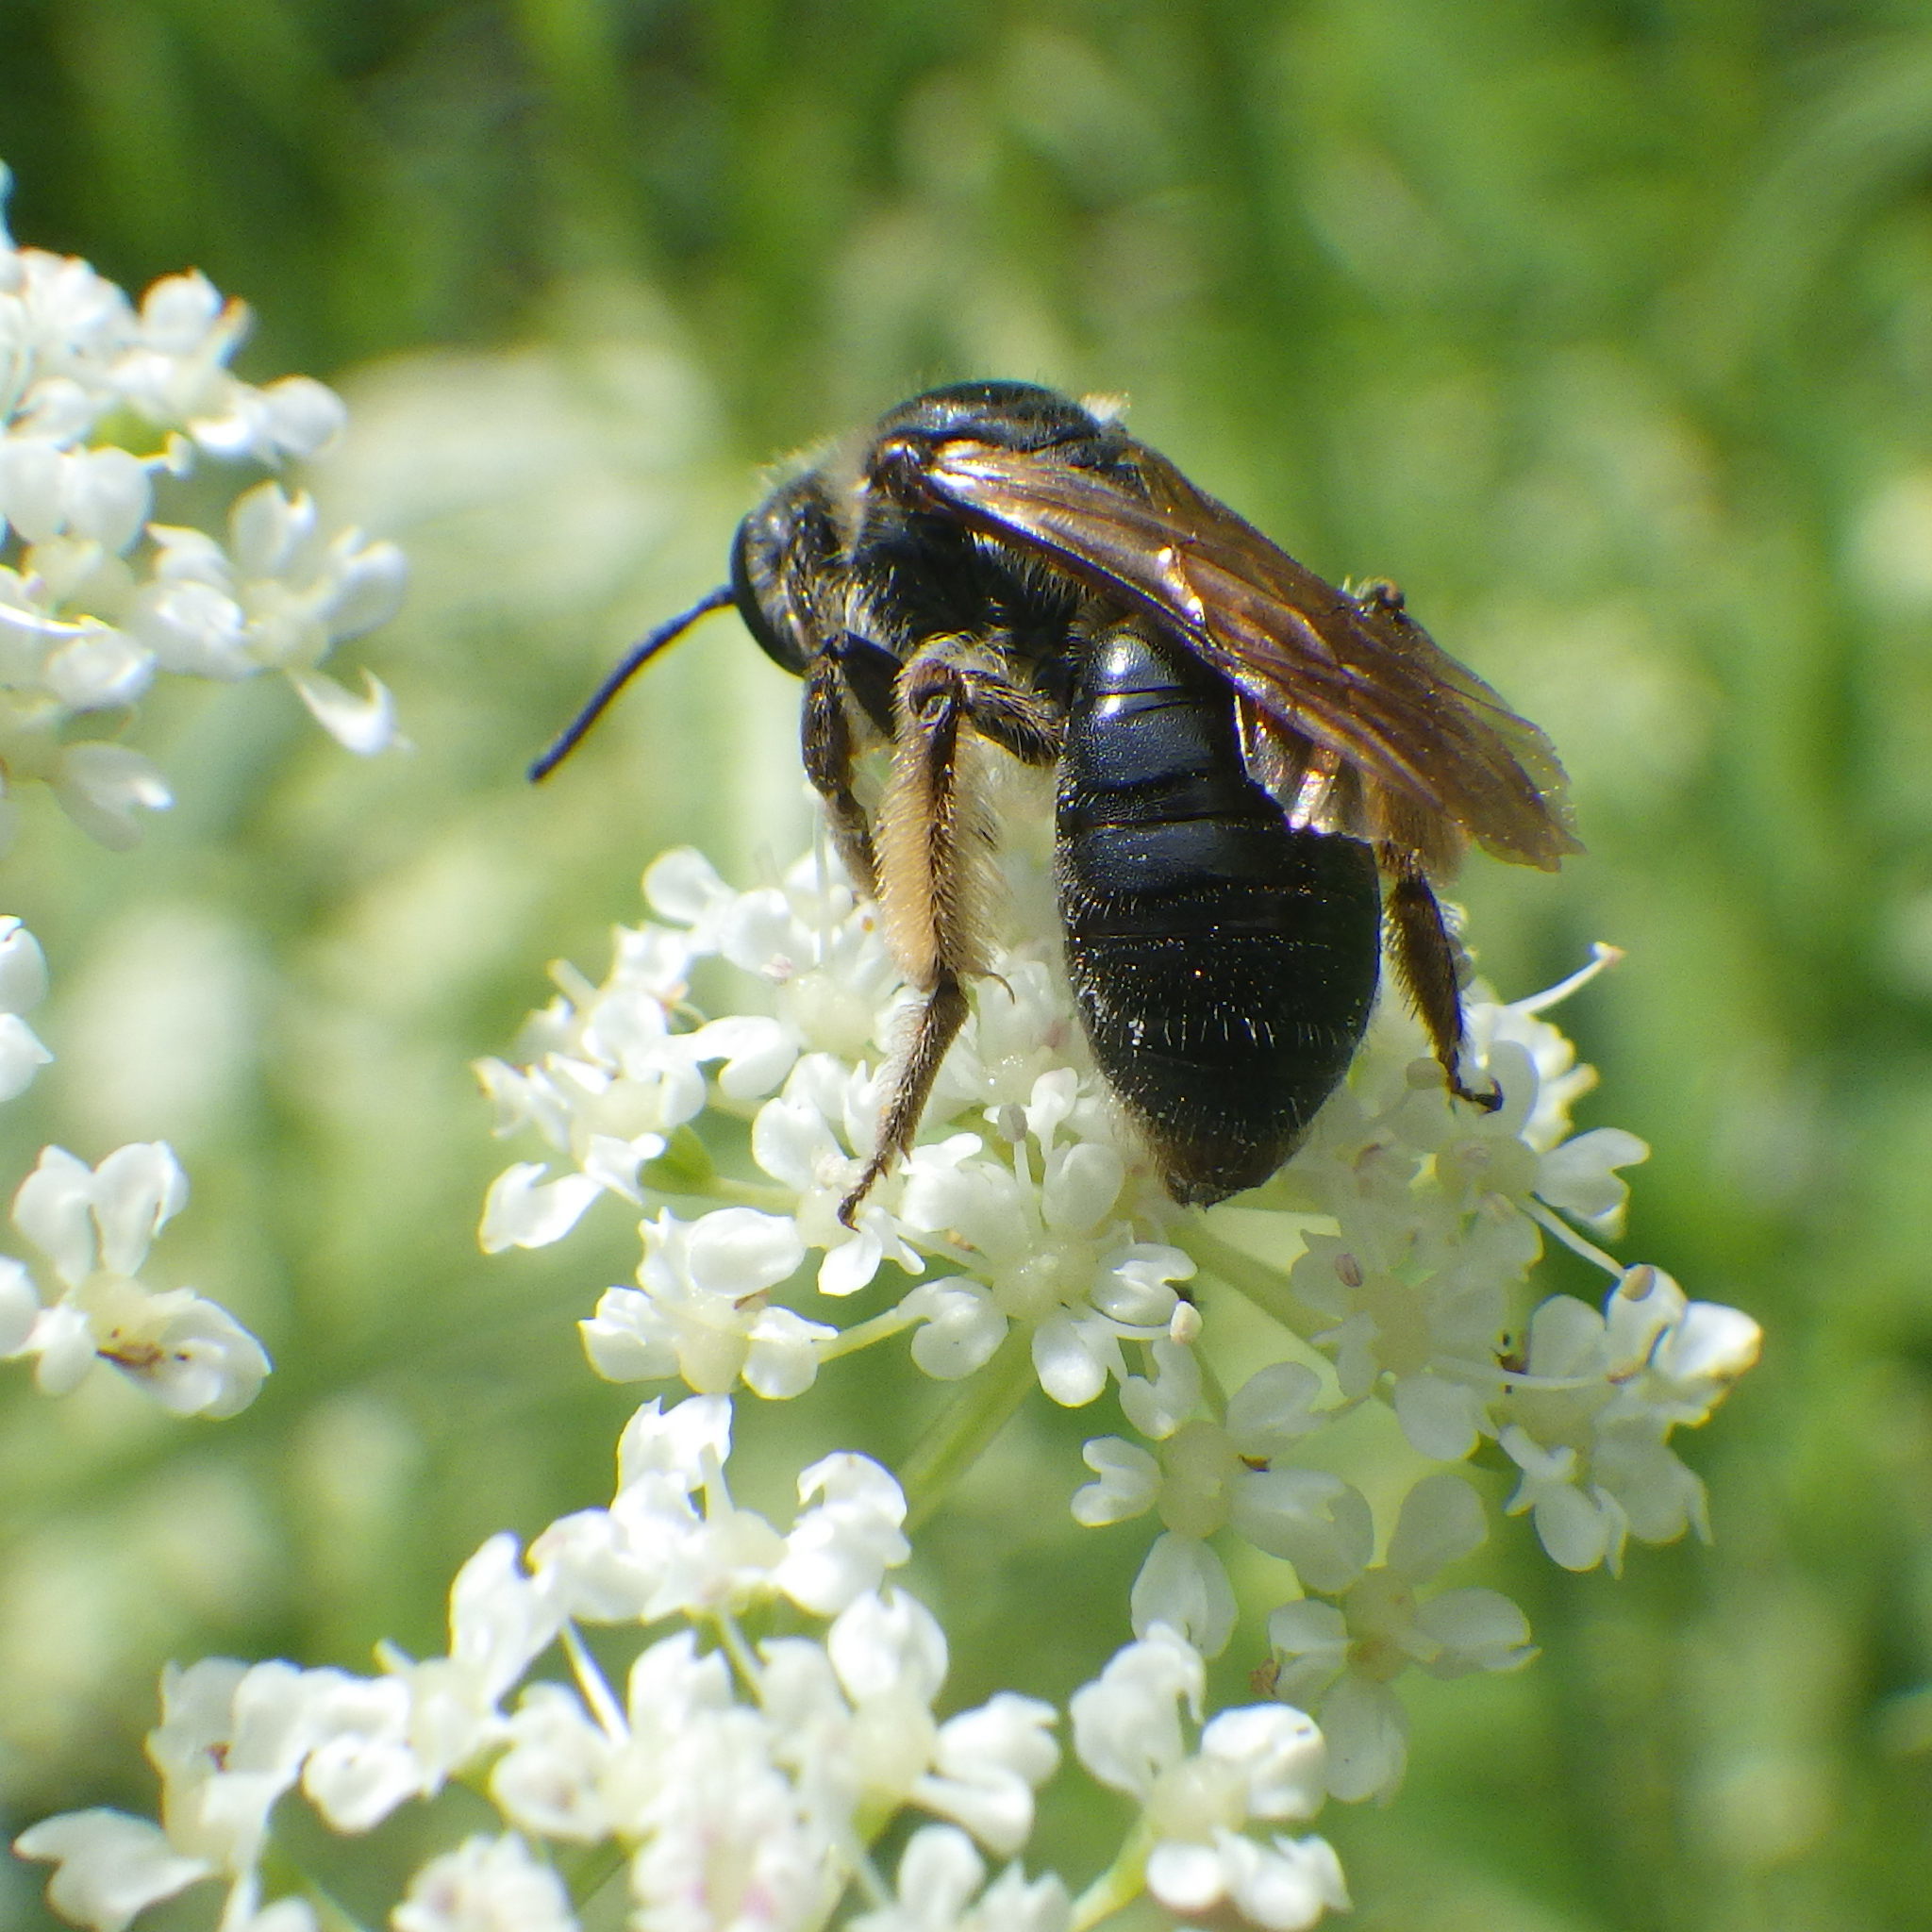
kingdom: Animalia
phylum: Arthropoda
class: Insecta
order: Hymenoptera
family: Andrenidae
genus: Andrena
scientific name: Andrena crataegi
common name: Hawthorn mining bee
